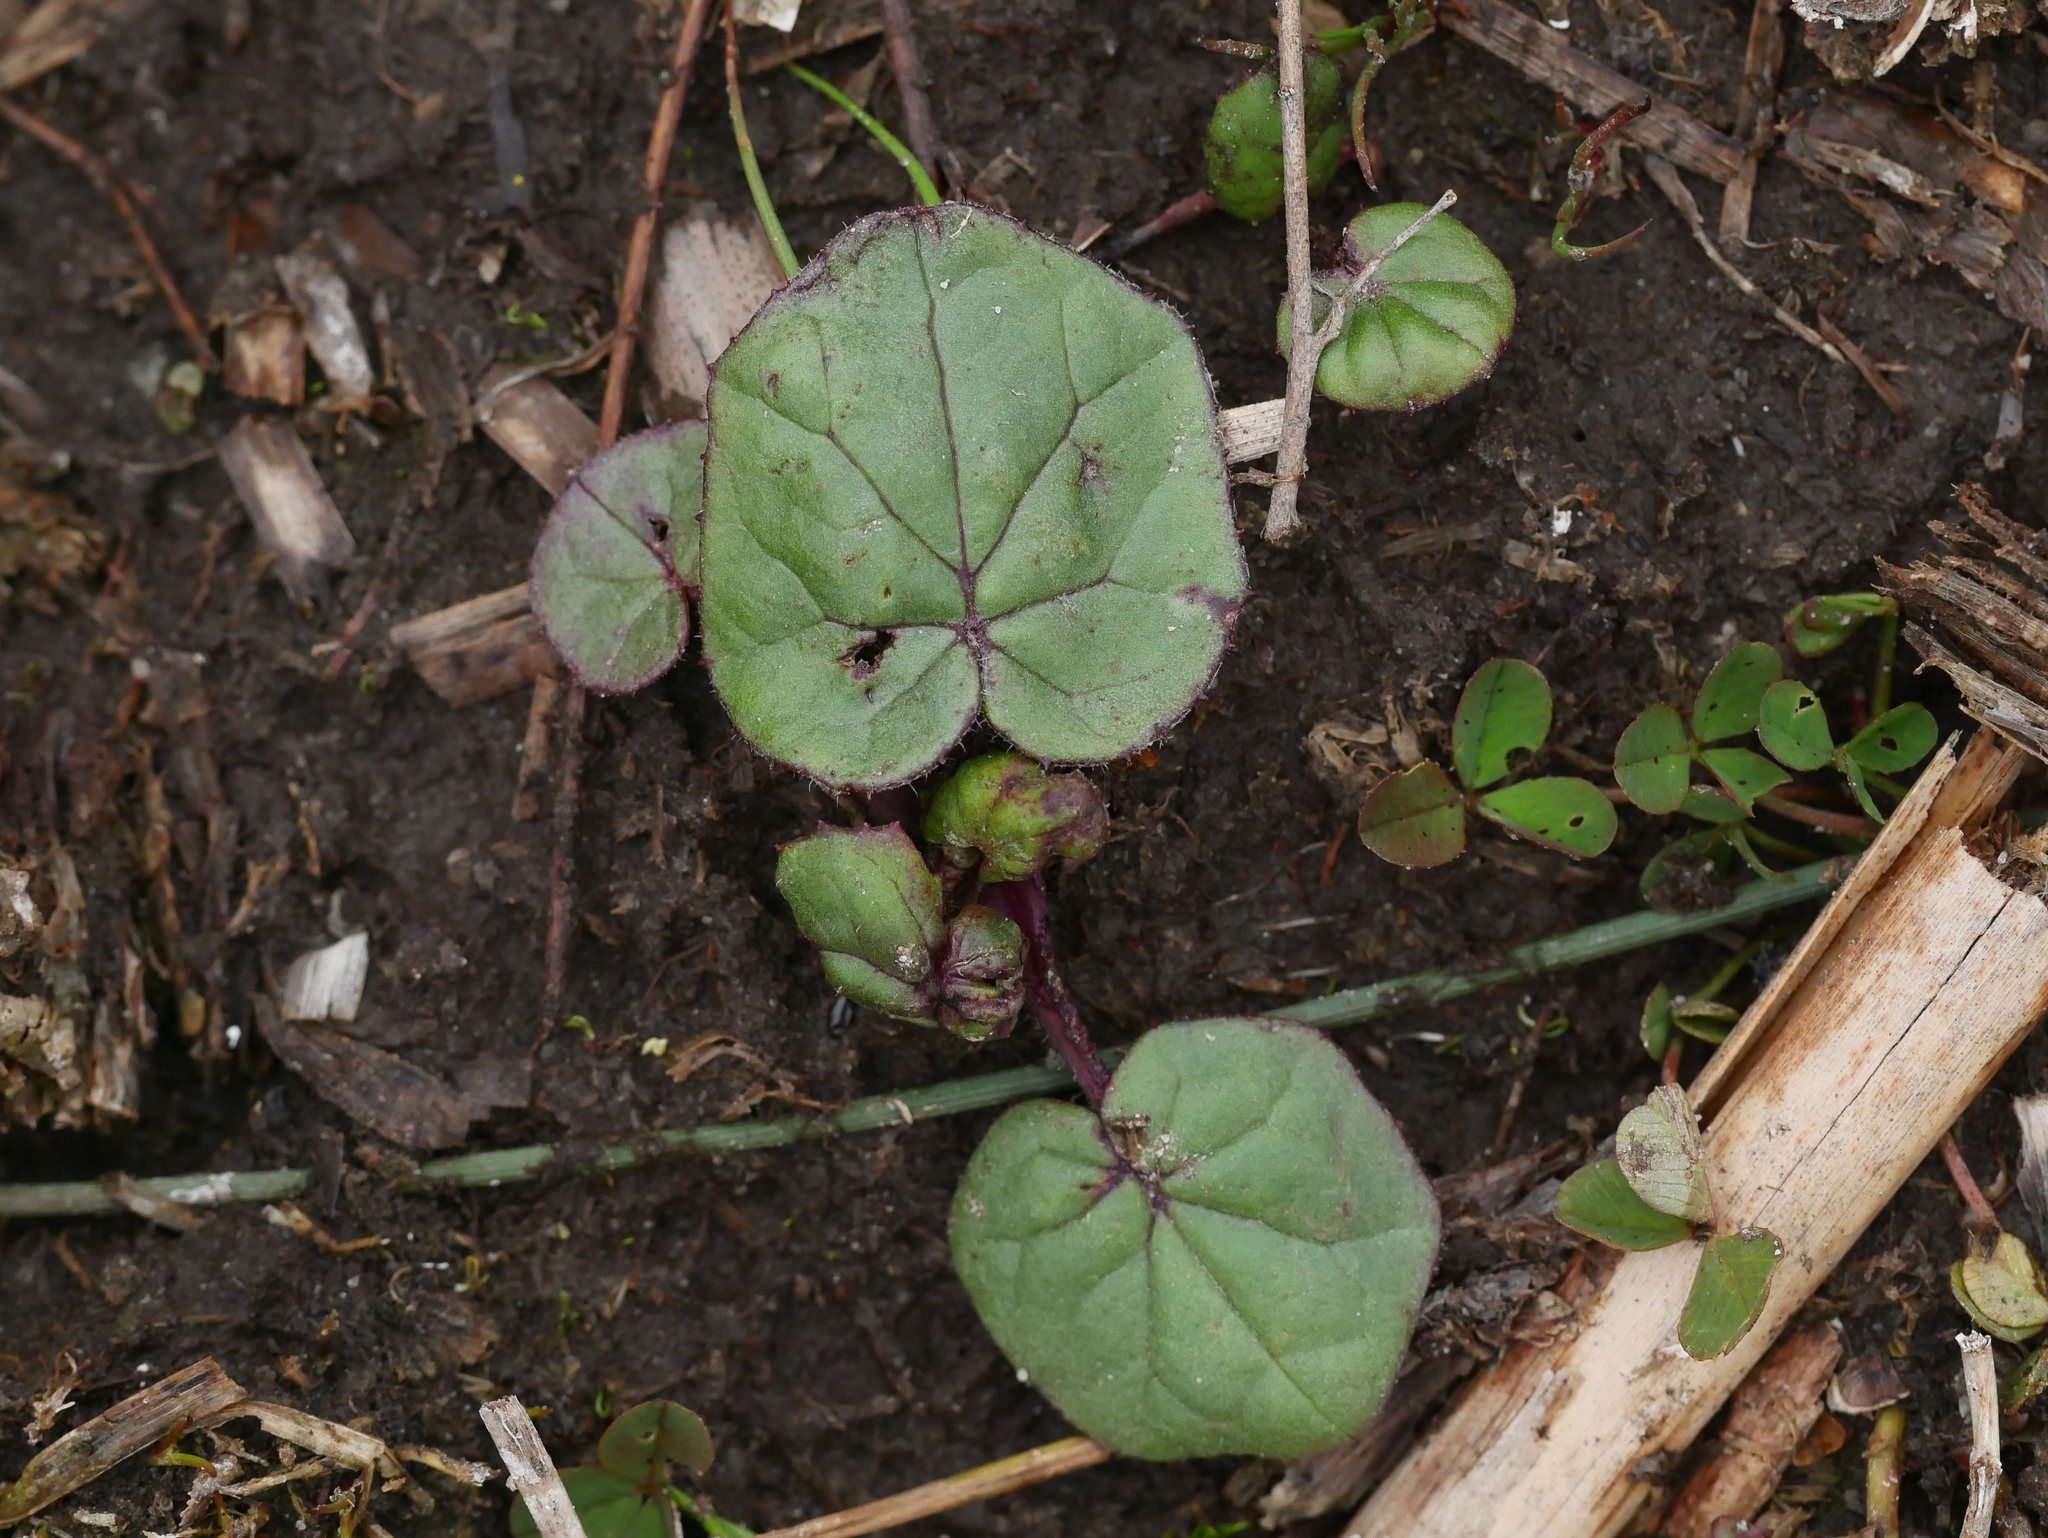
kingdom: Plantae
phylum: Tracheophyta
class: Magnoliopsida
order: Ranunculales
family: Ranunculaceae
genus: Ficaria
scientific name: Ficaria verna
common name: Lesser celandine
